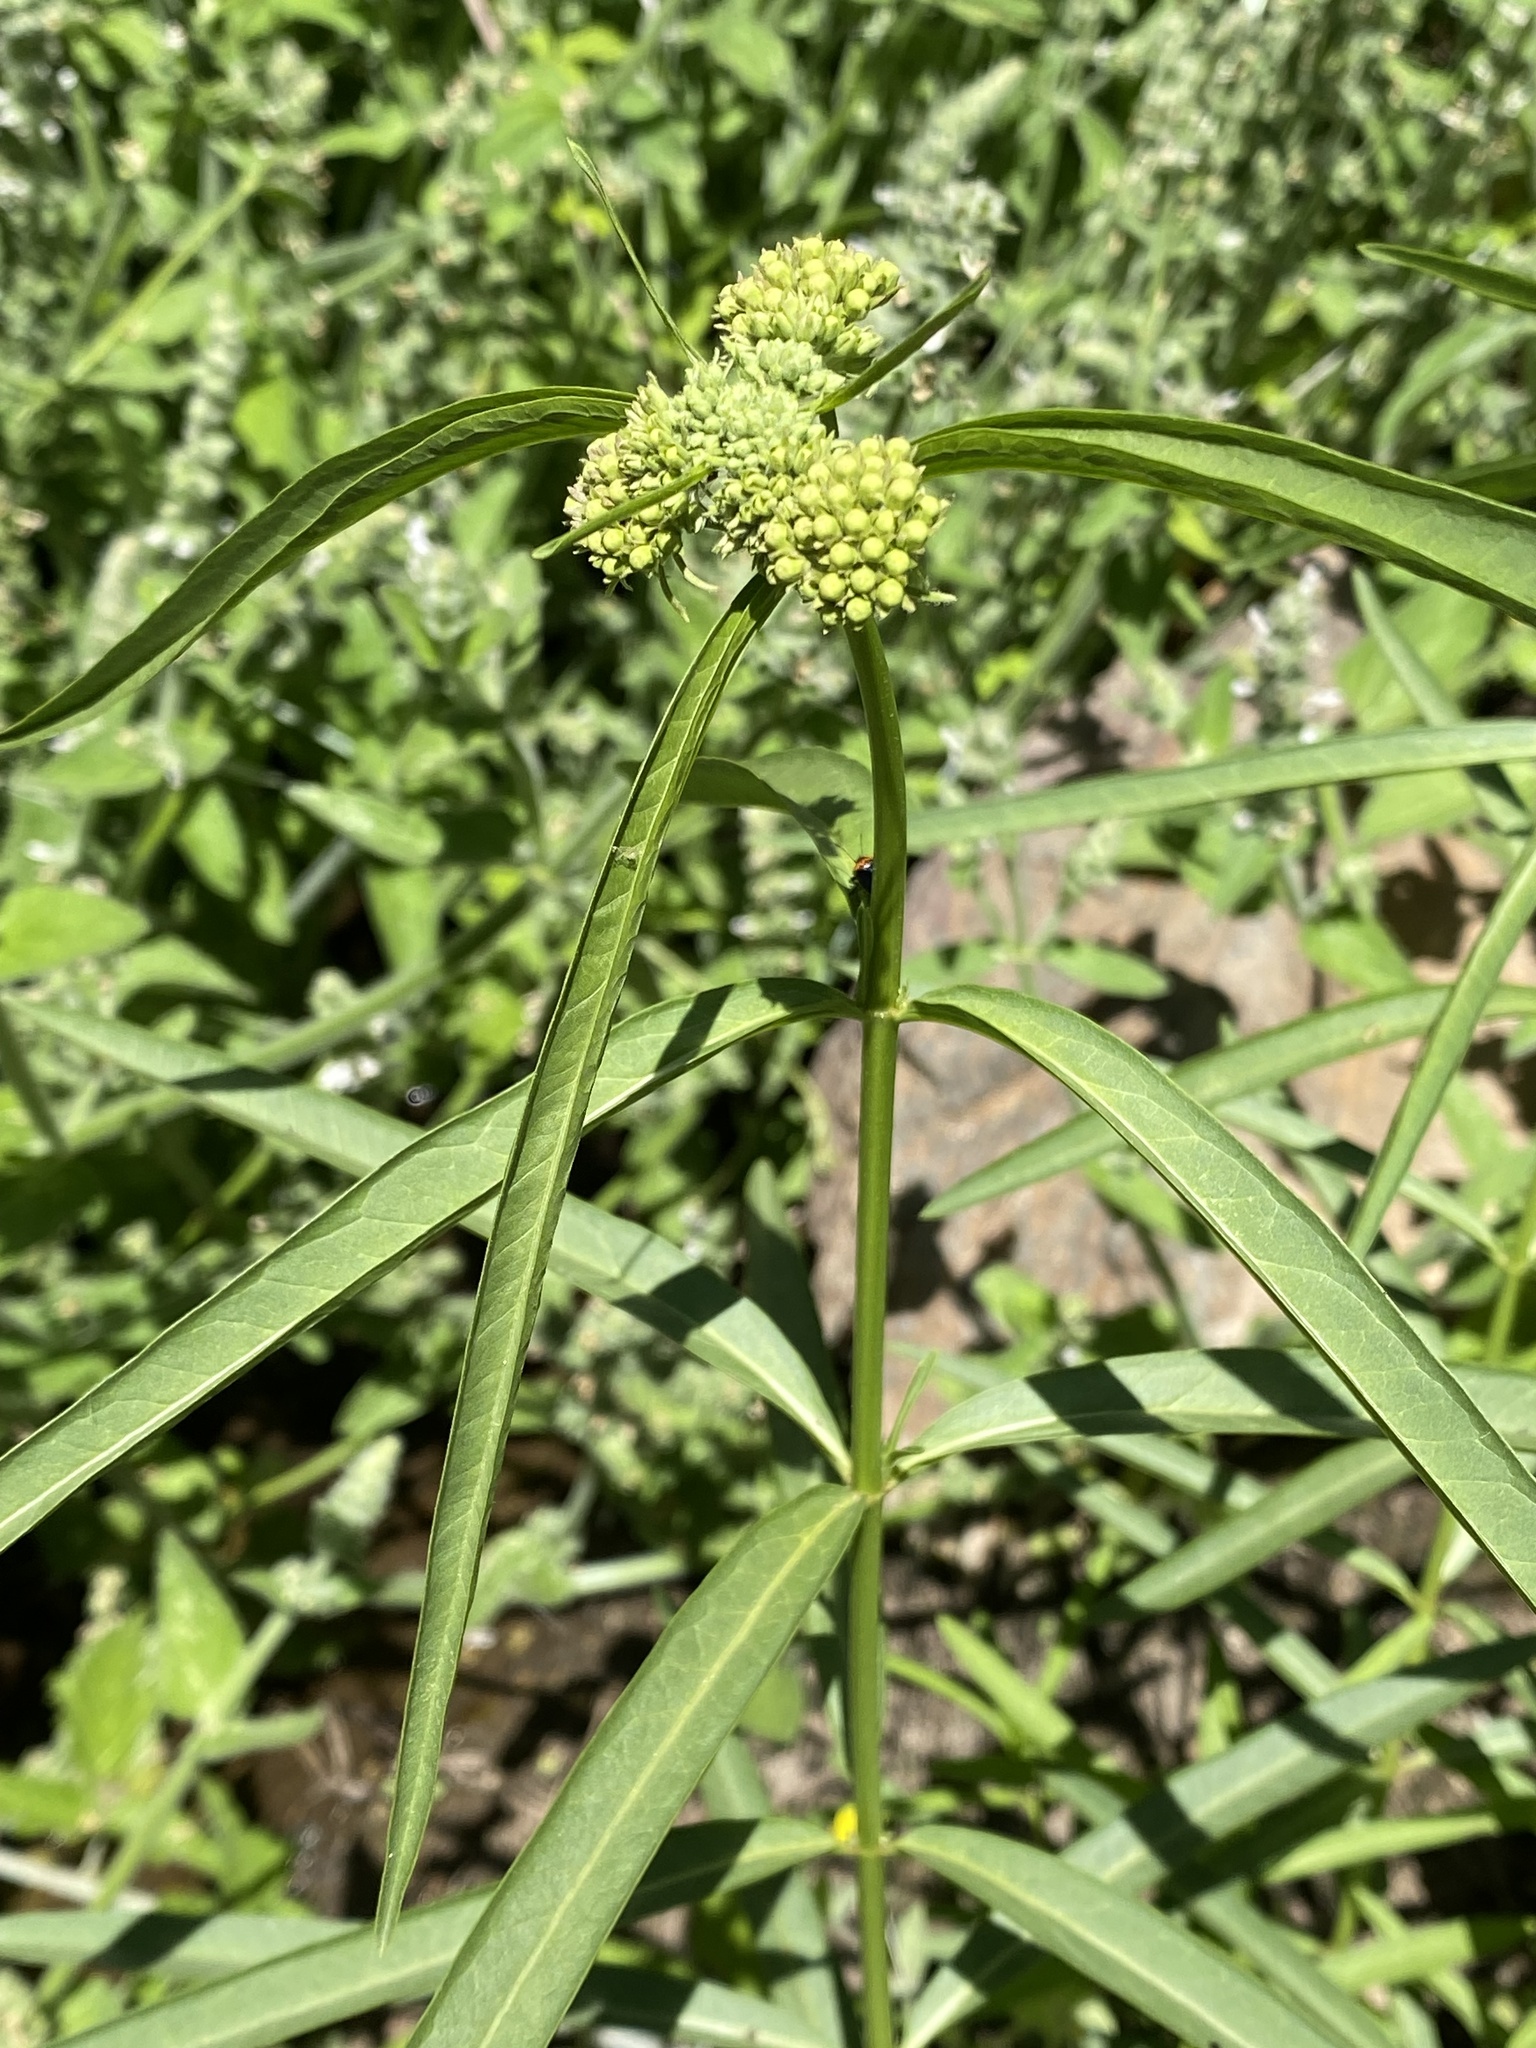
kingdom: Plantae
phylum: Tracheophyta
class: Magnoliopsida
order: Gentianales
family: Apocynaceae
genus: Asclepias
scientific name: Asclepias fascicularis
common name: Mexican milkweed
